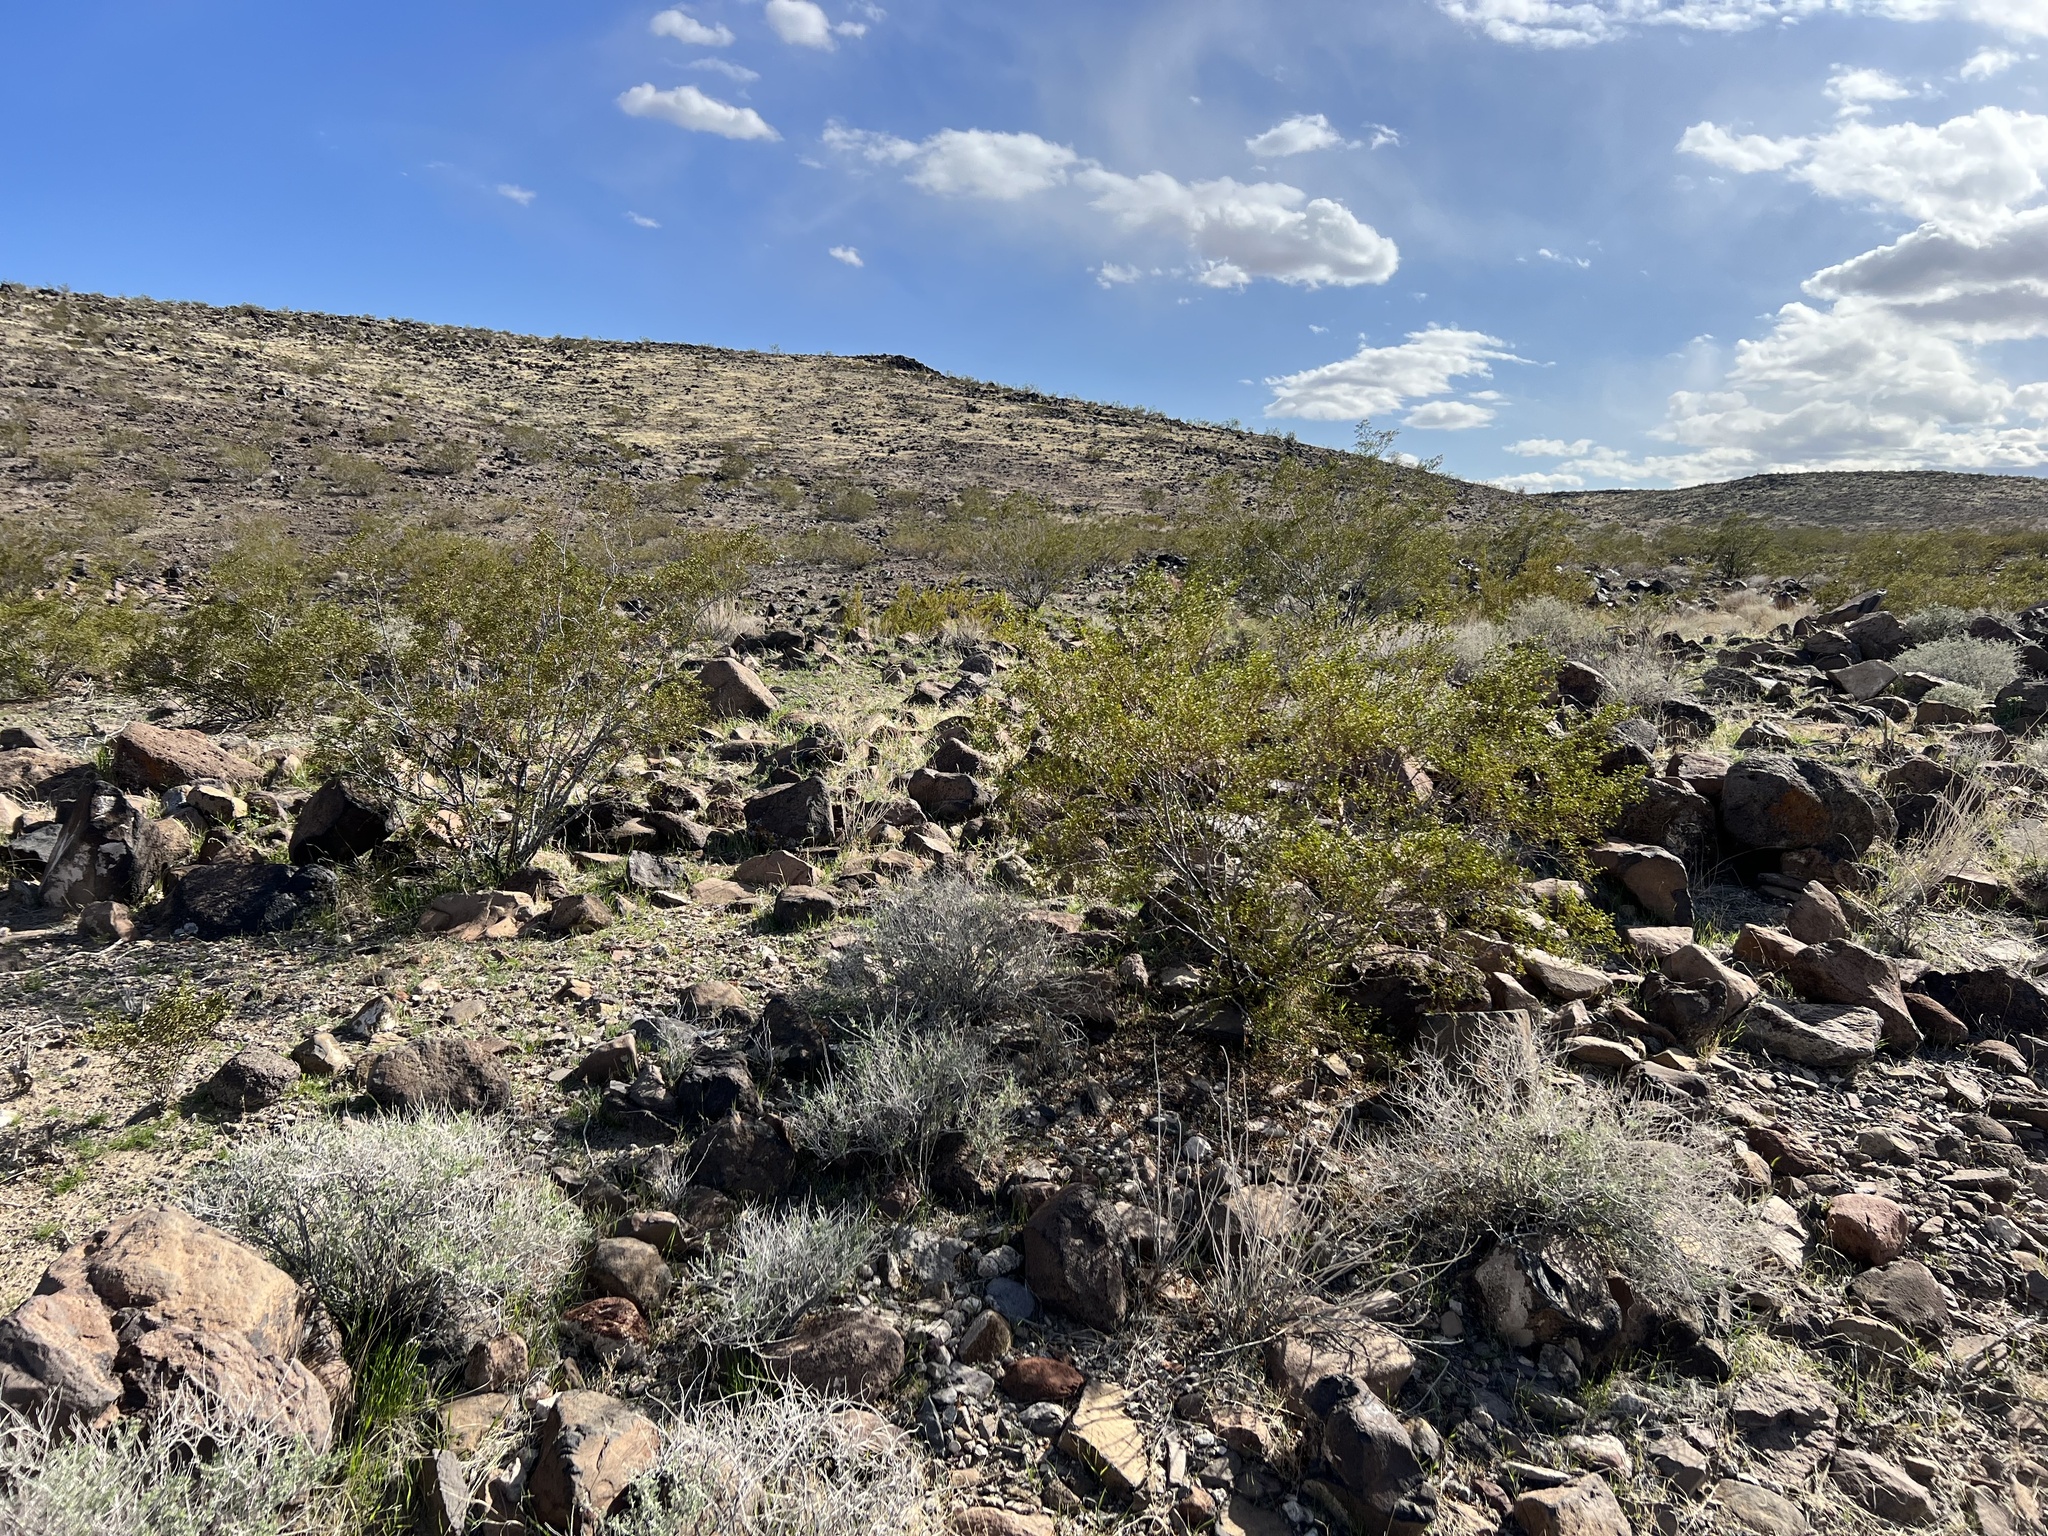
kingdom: Plantae
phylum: Tracheophyta
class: Magnoliopsida
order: Zygophyllales
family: Zygophyllaceae
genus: Larrea
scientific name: Larrea tridentata
